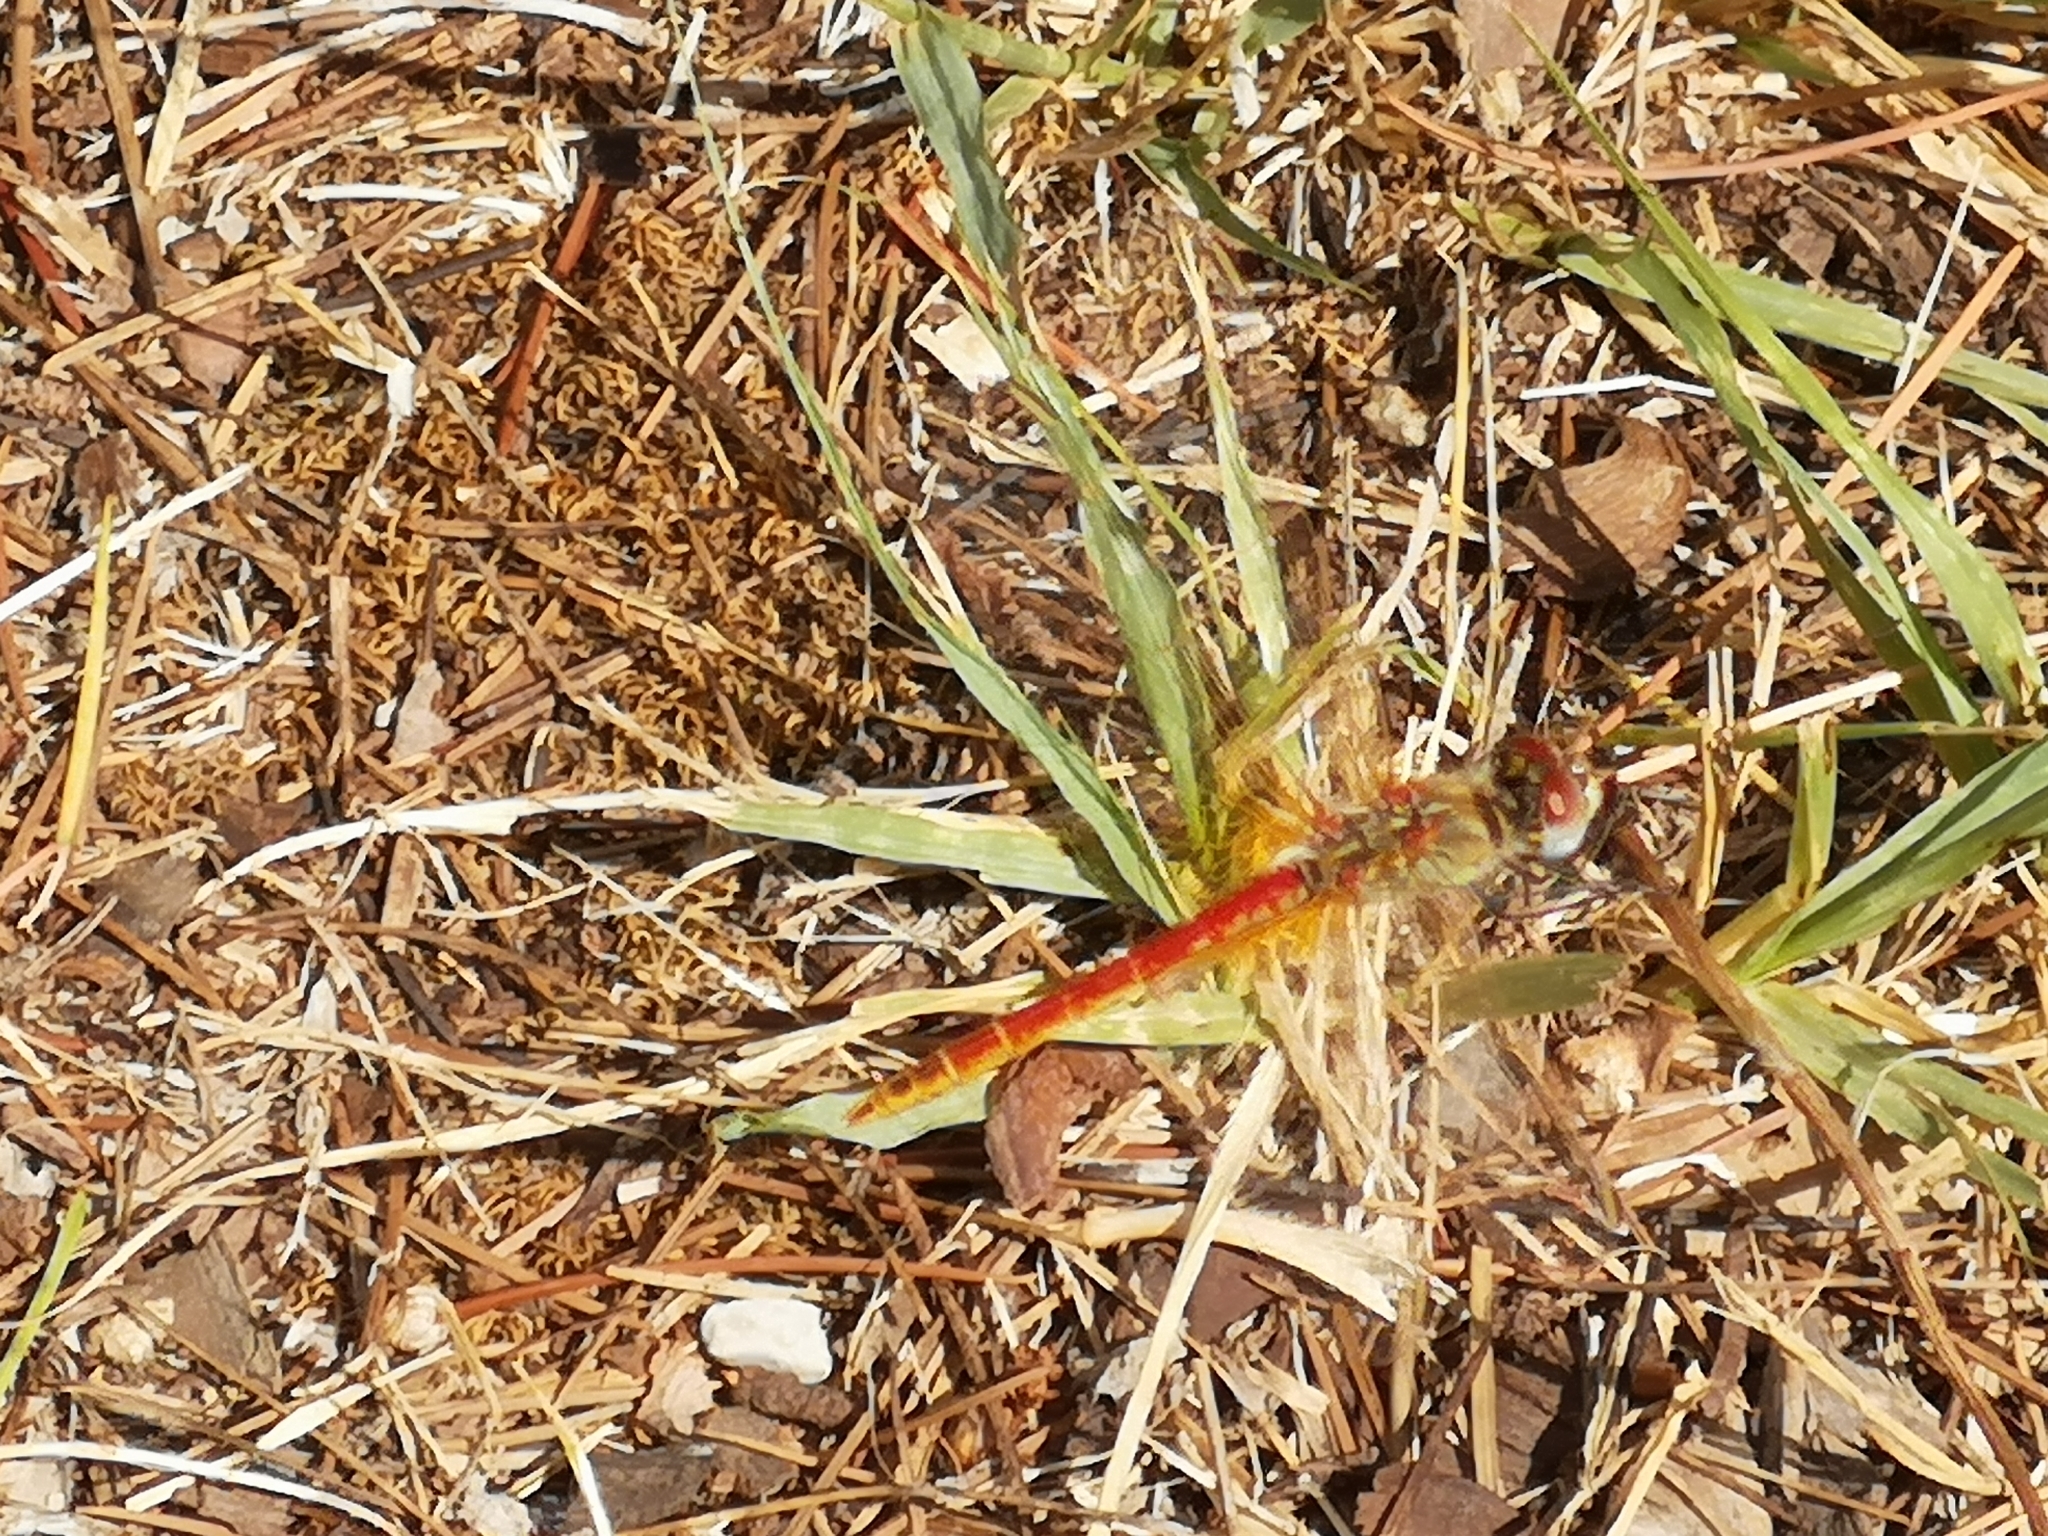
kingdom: Animalia
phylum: Arthropoda
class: Insecta
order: Odonata
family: Libellulidae
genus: Sympetrum
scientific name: Sympetrum fonscolombii
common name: Red-veined darter
